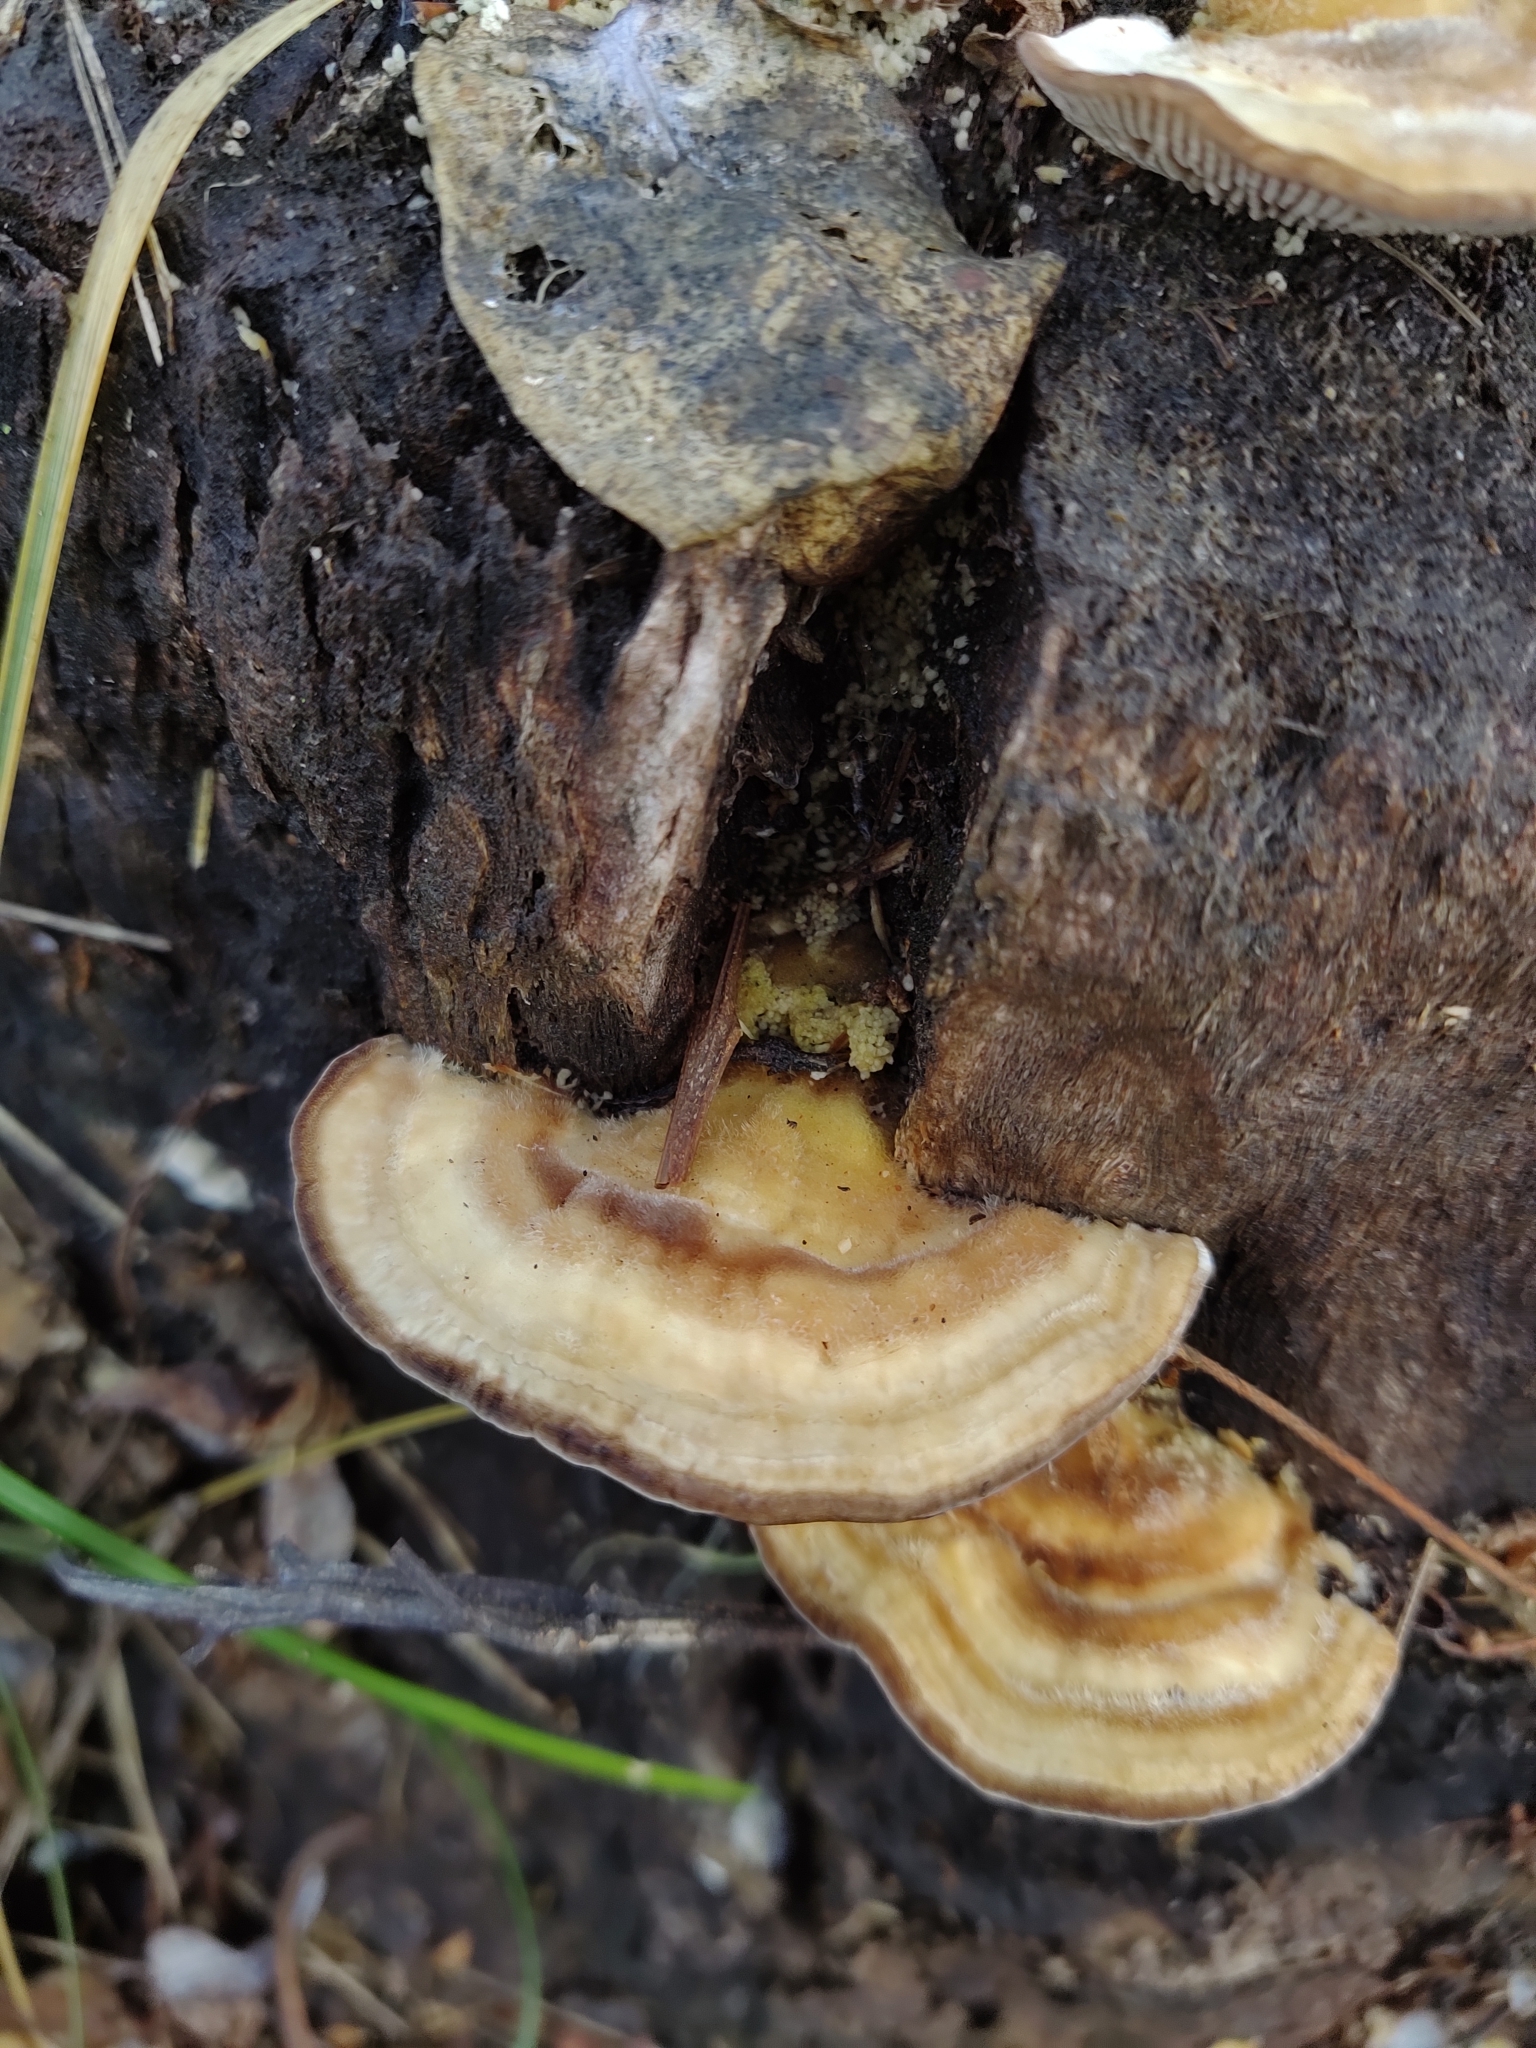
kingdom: Fungi
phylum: Basidiomycota
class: Agaricomycetes
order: Polyporales
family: Polyporaceae
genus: Lenzites
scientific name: Lenzites betulinus
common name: Birch mazegill
